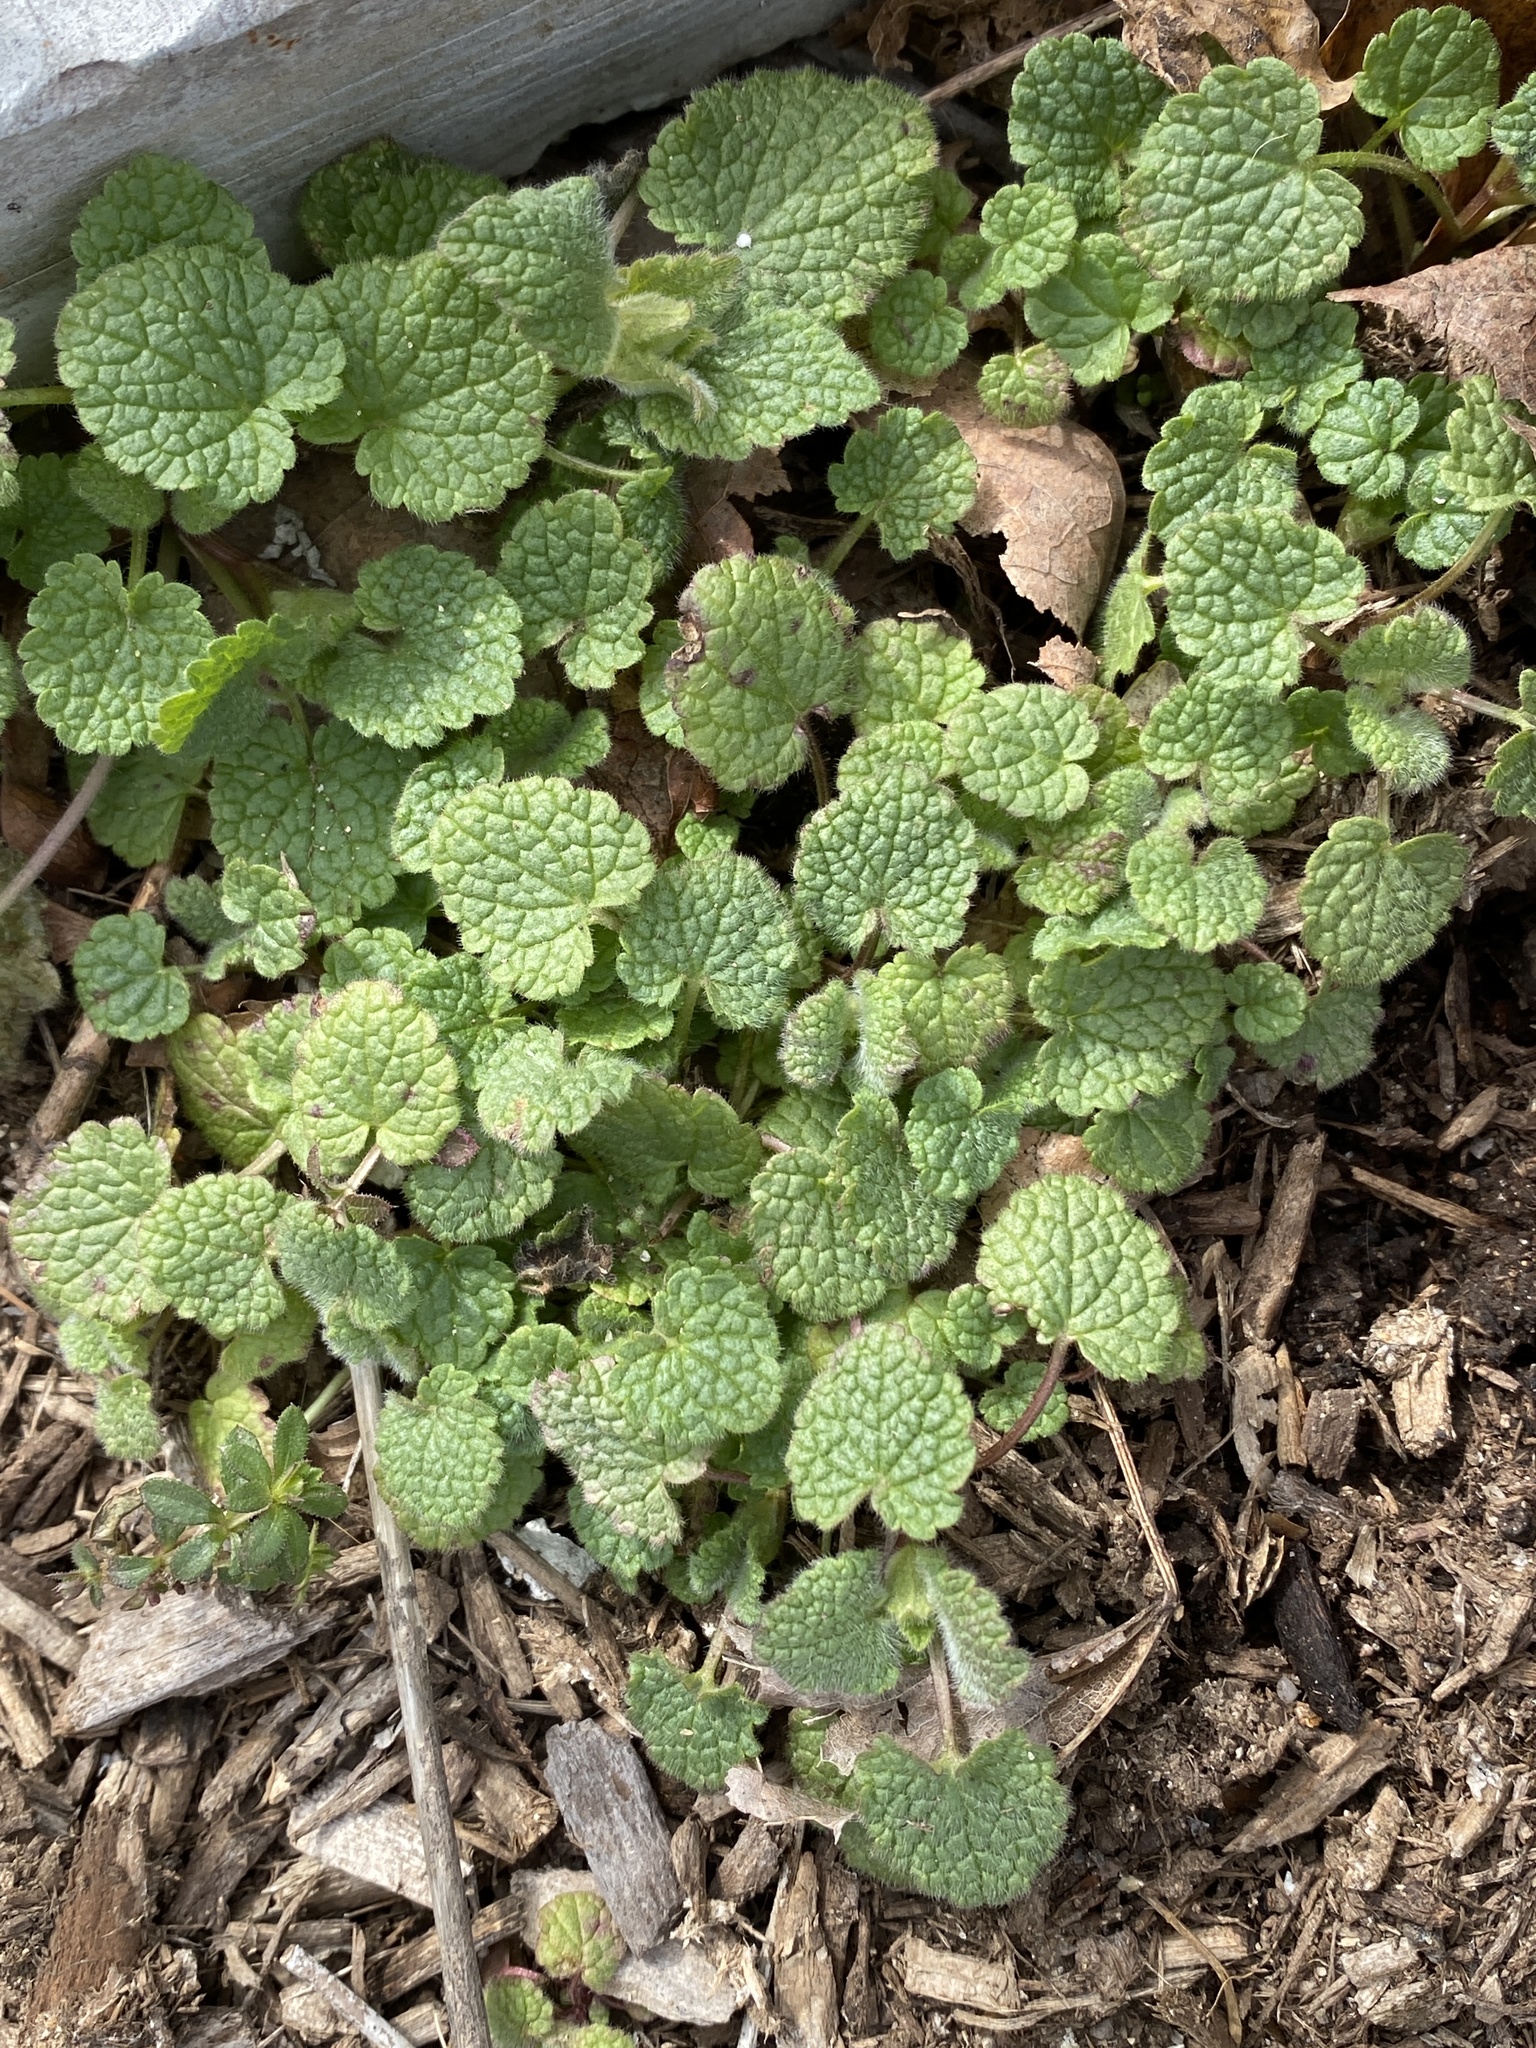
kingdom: Plantae
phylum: Tracheophyta
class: Magnoliopsida
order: Lamiales
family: Lamiaceae
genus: Lamium
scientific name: Lamium purpureum
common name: Red dead-nettle
